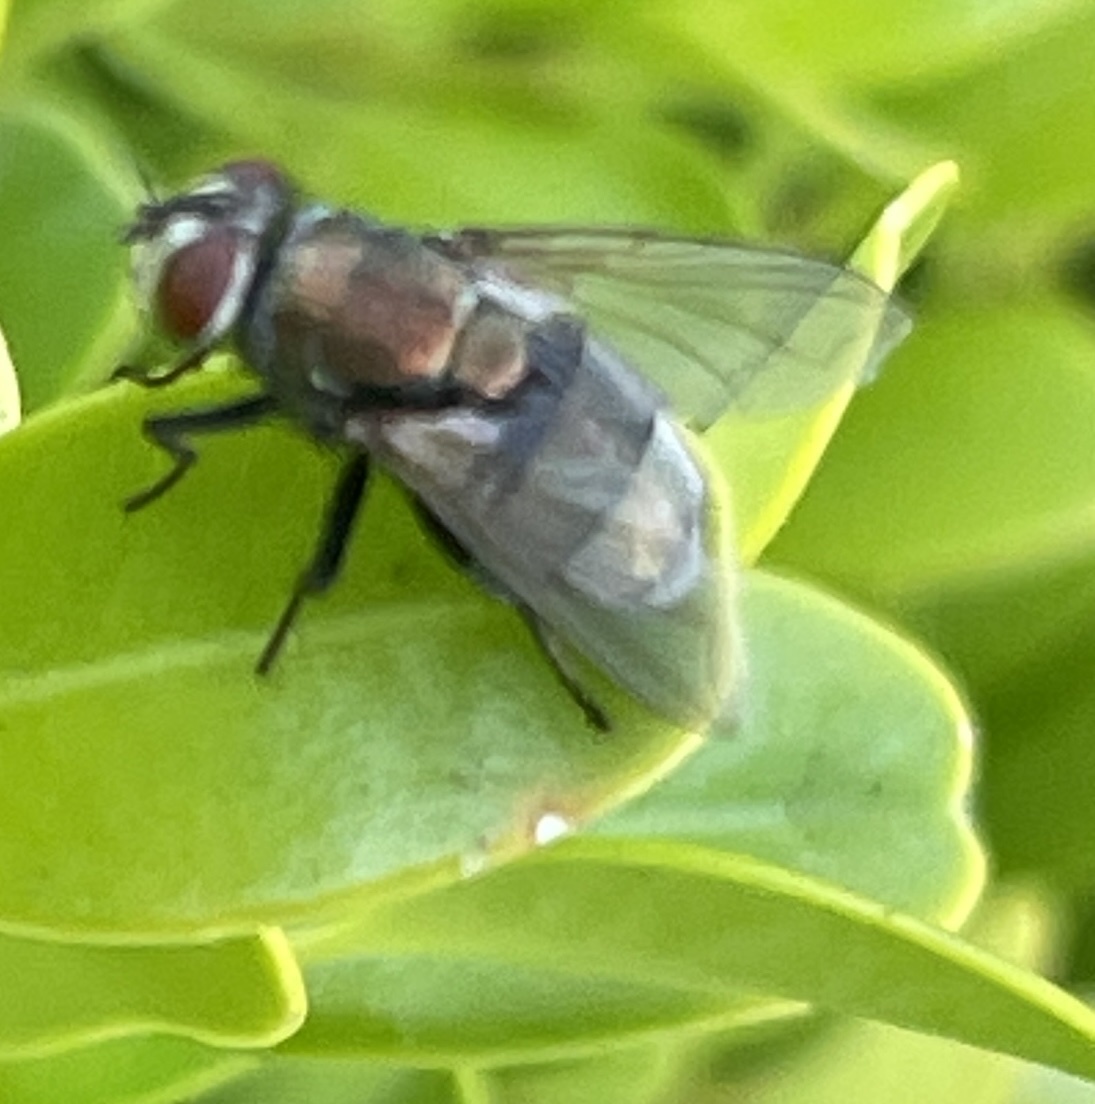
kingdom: Animalia
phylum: Arthropoda
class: Insecta
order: Diptera
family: Calliphoridae
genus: Lucilia
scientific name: Lucilia cuprina
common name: Sheep blow fly
